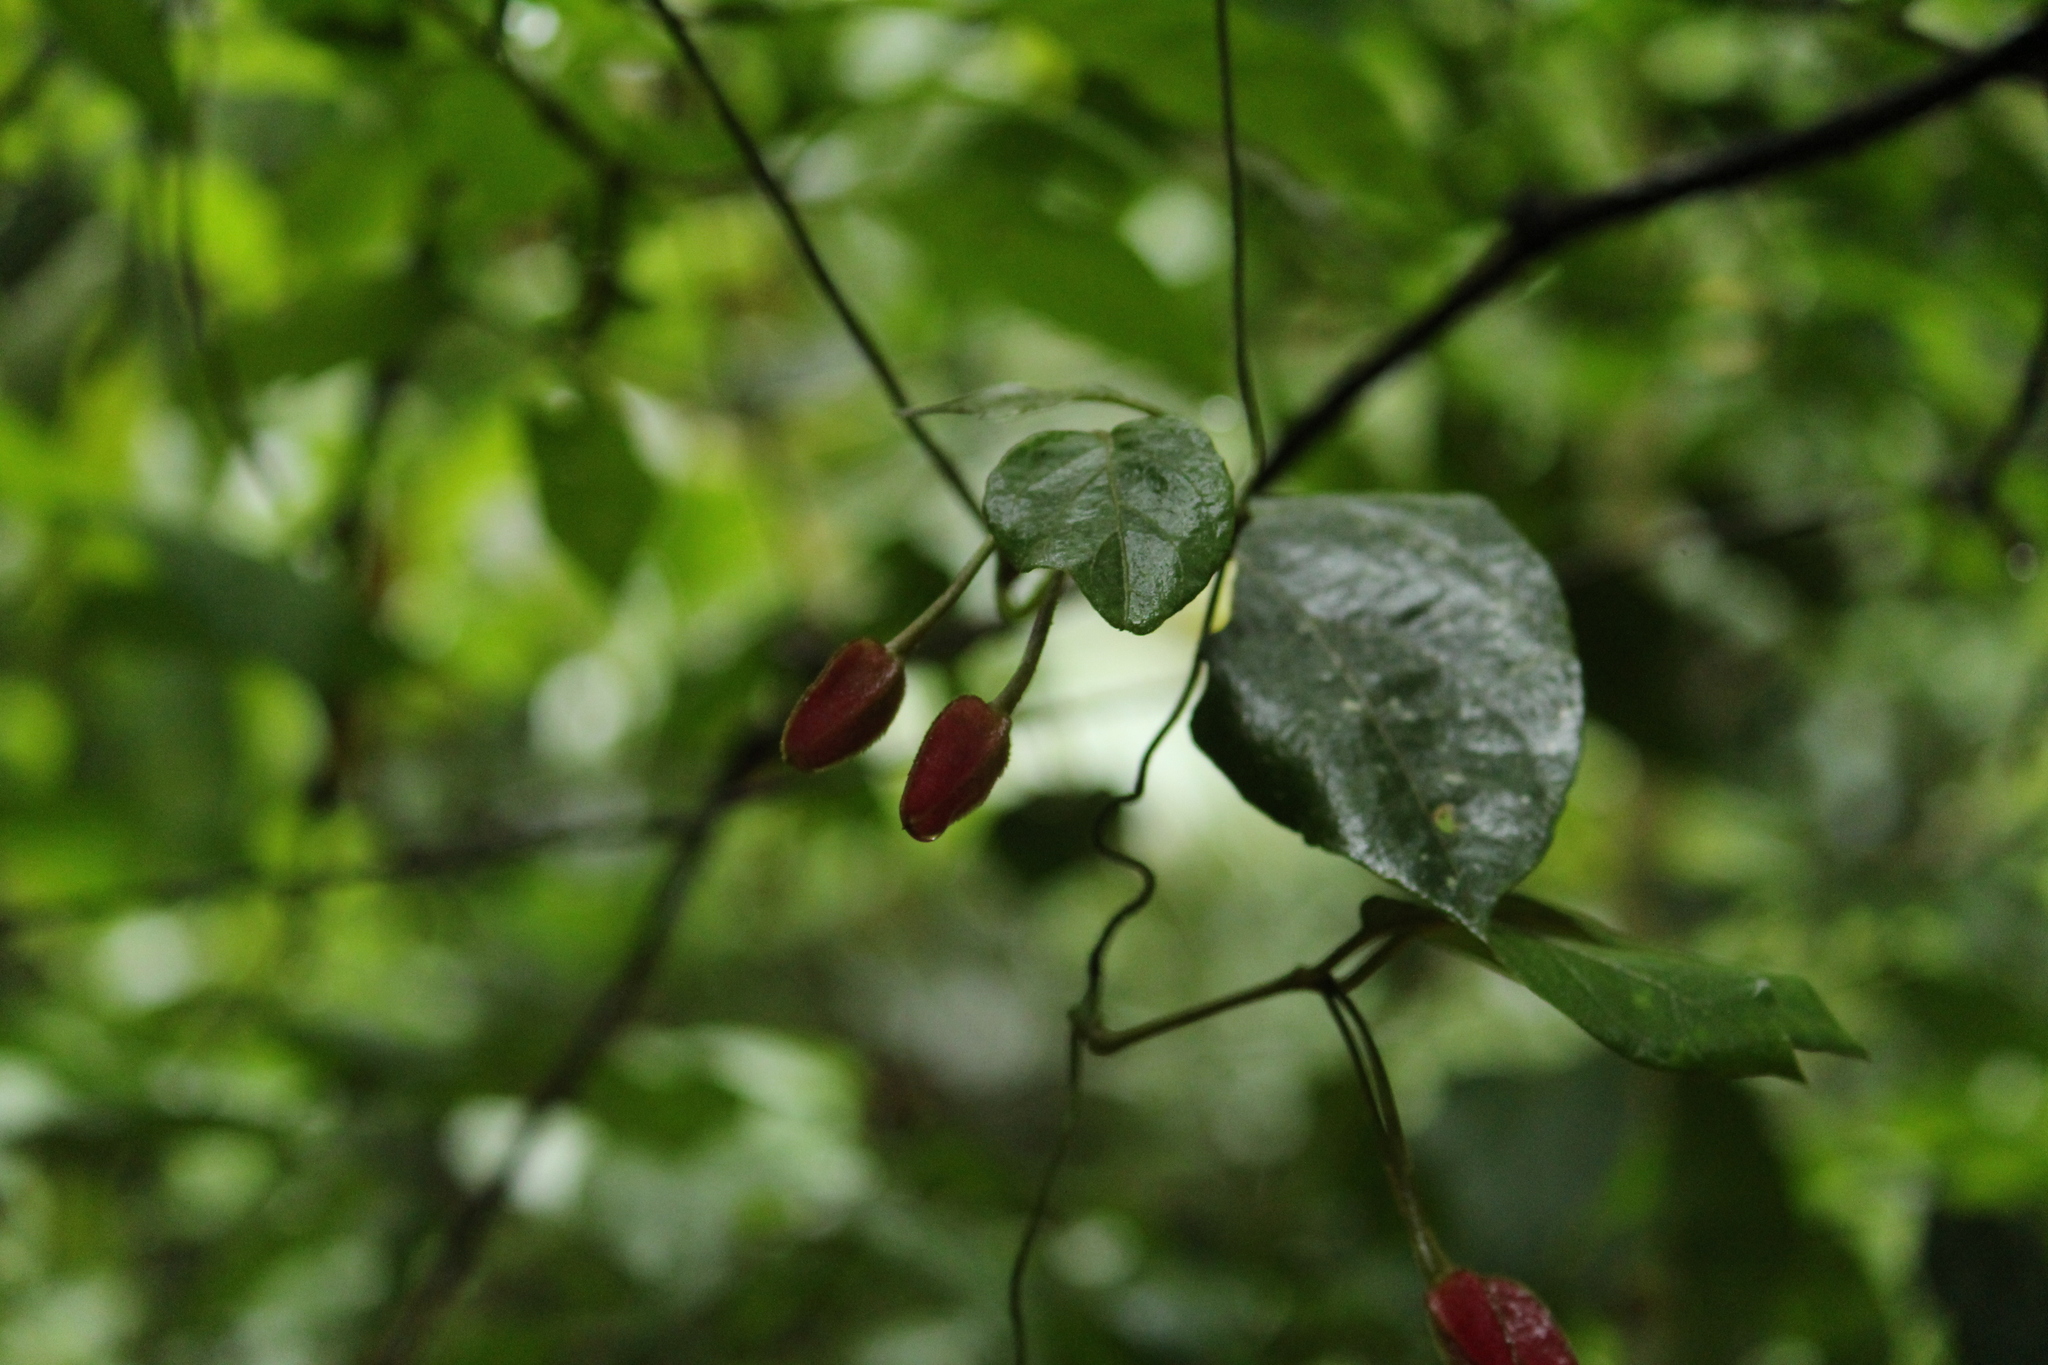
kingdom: Plantae
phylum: Tracheophyta
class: Magnoliopsida
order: Lamiales
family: Acanthaceae
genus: Mendoncia
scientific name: Mendoncia velloziana
